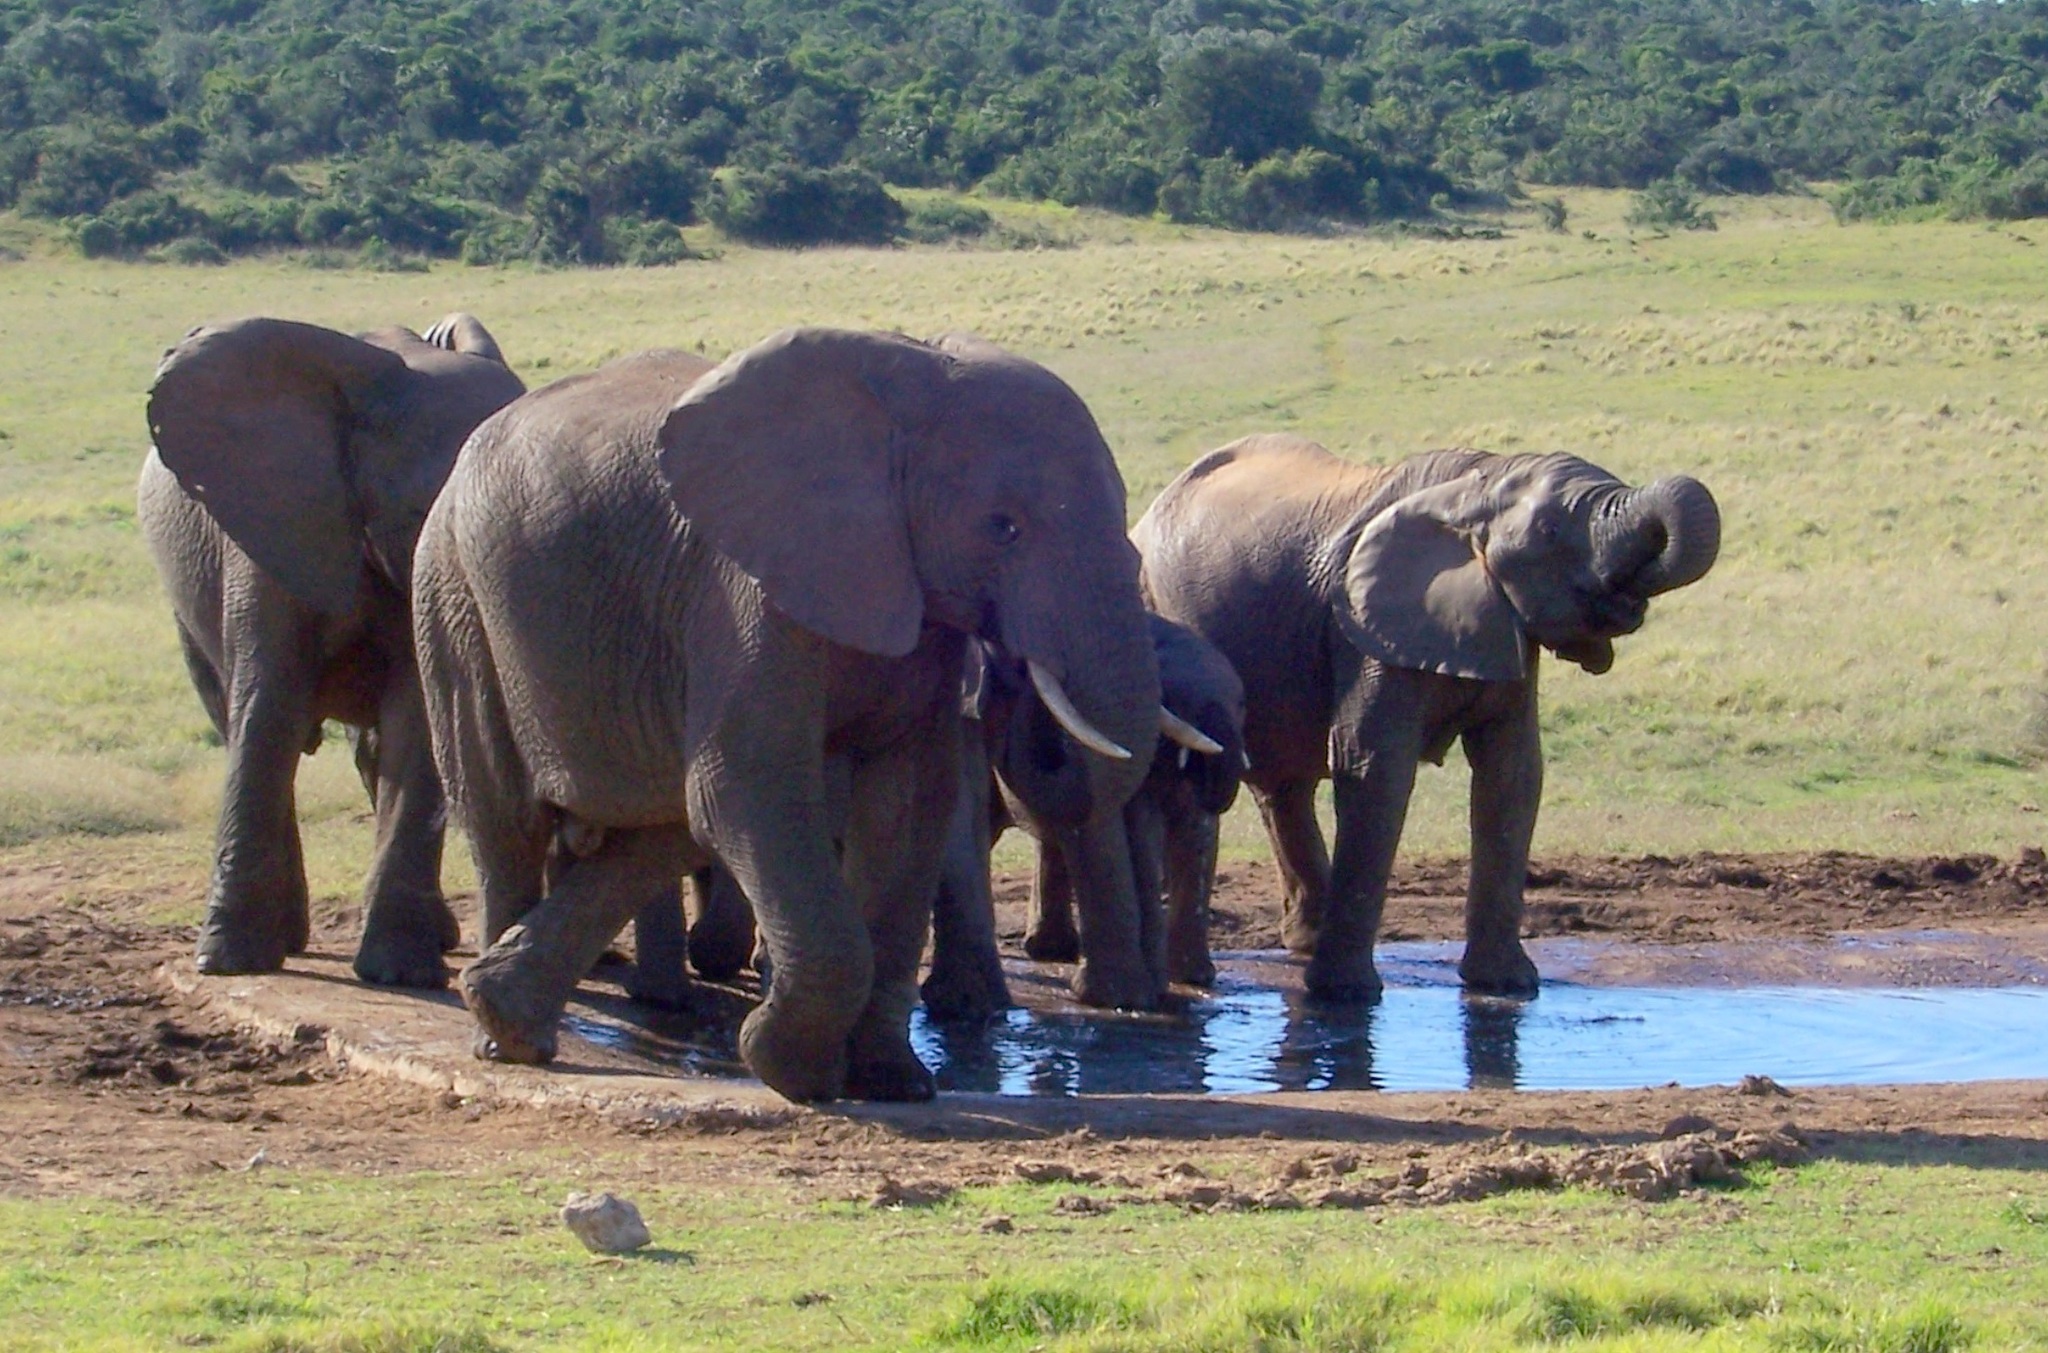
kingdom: Animalia
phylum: Chordata
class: Mammalia
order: Proboscidea
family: Elephantidae
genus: Loxodonta
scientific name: Loxodonta africana
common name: African elephant
